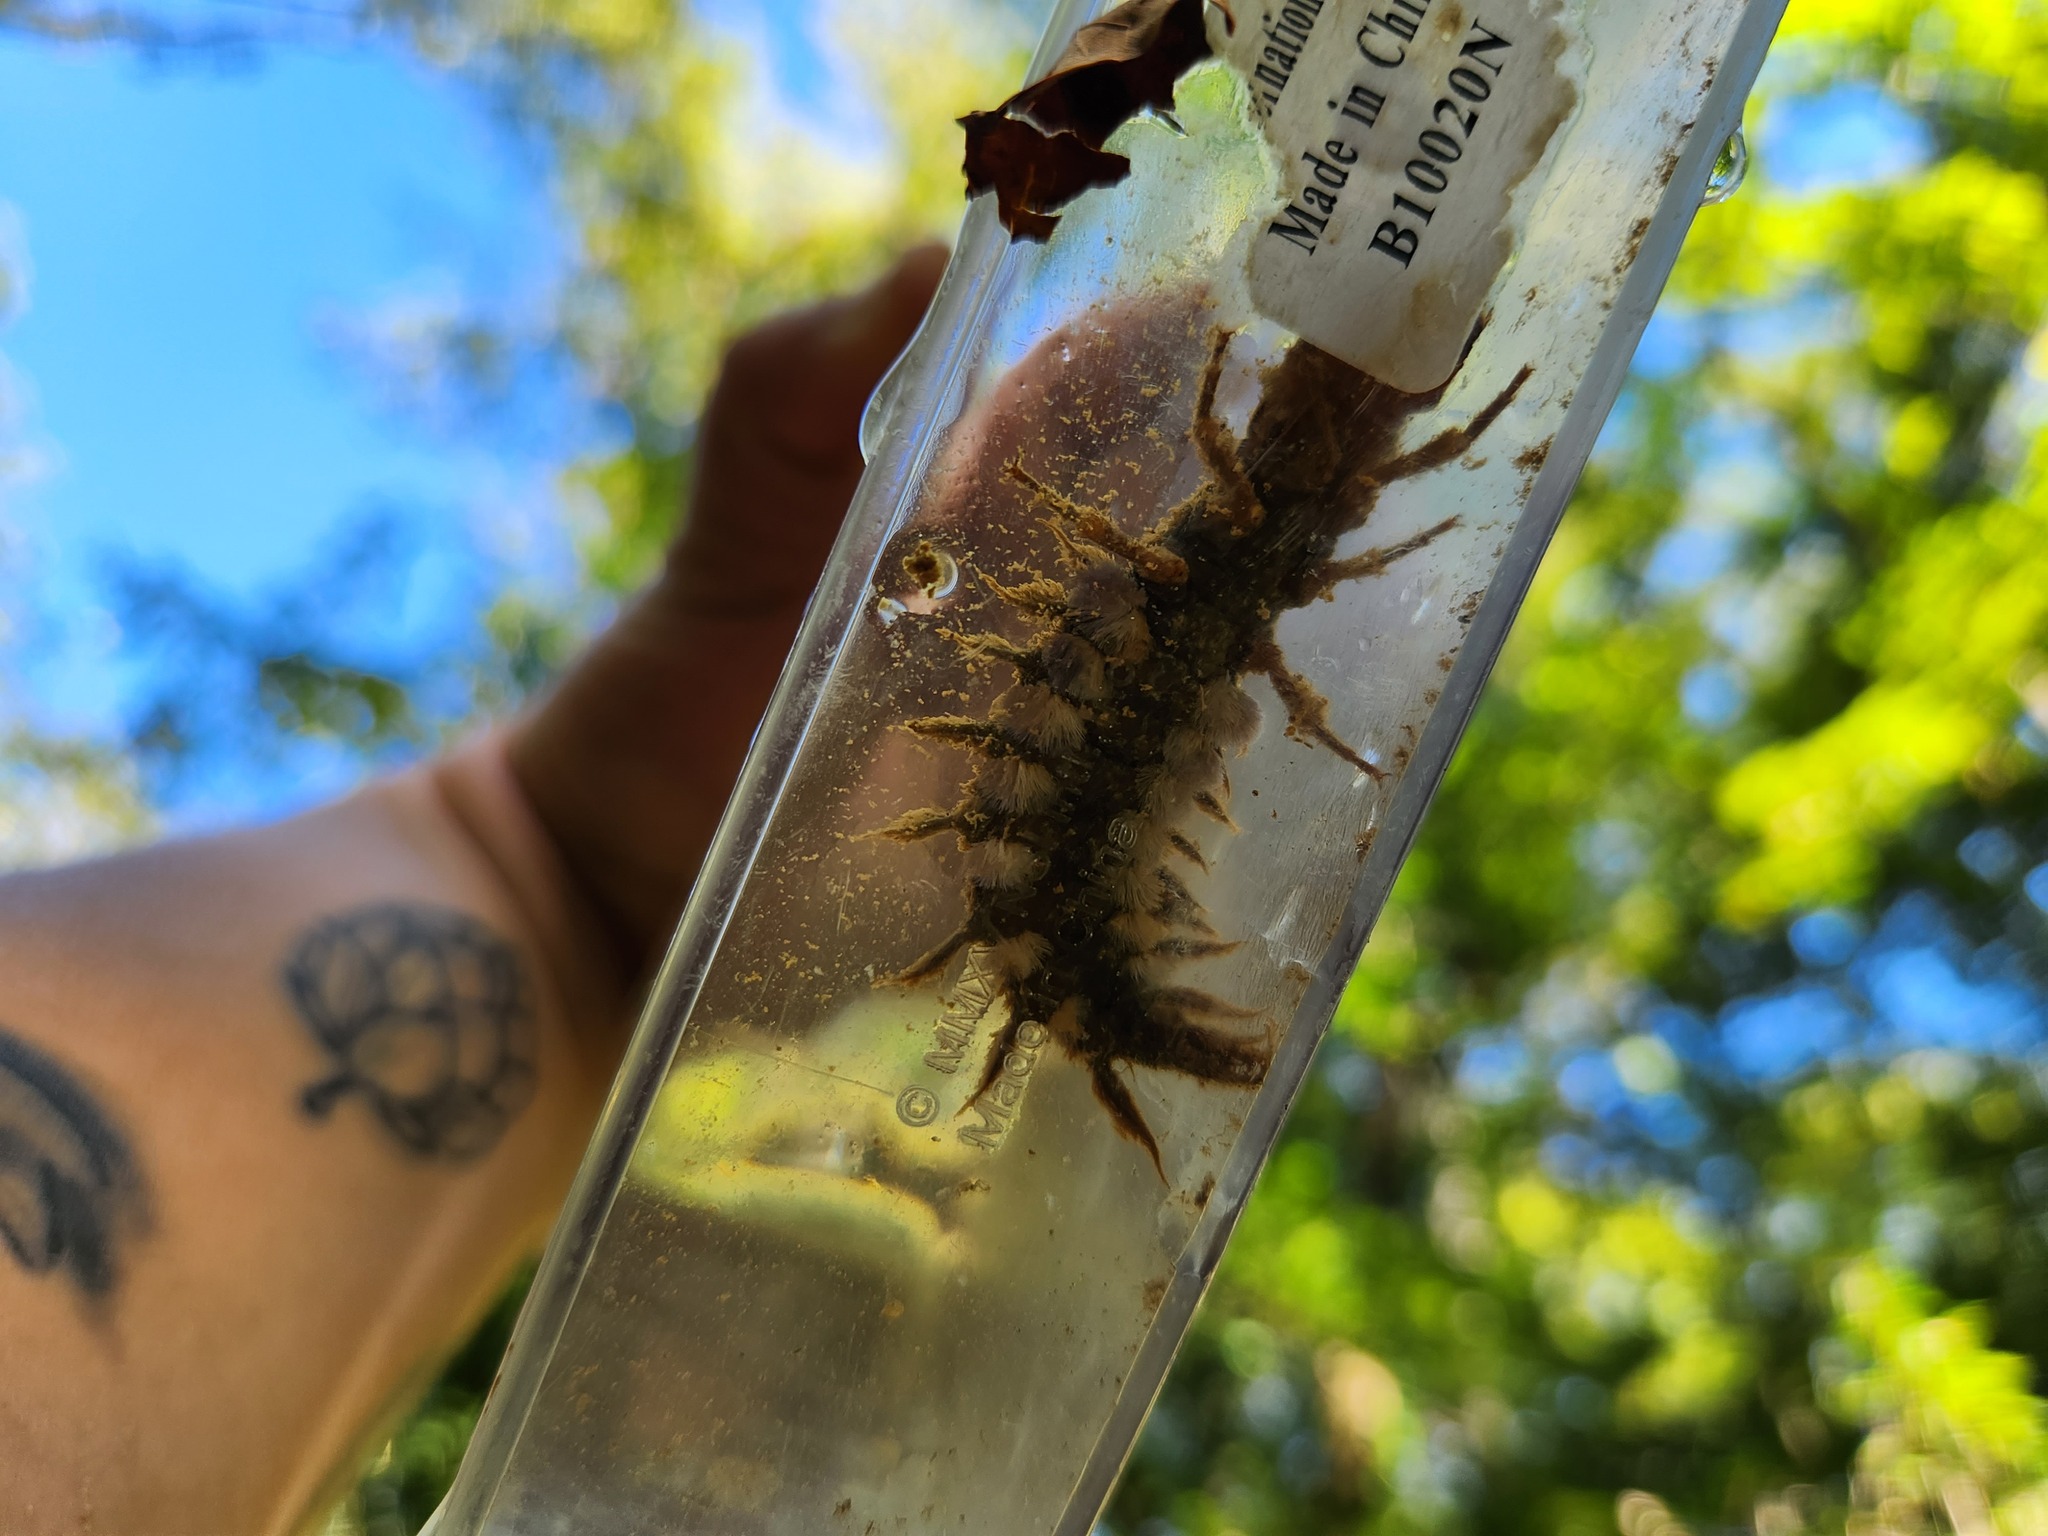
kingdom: Animalia
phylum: Arthropoda
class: Insecta
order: Megaloptera
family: Corydalidae
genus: Corydalus
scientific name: Corydalus cornutus
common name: Dobsonfly
